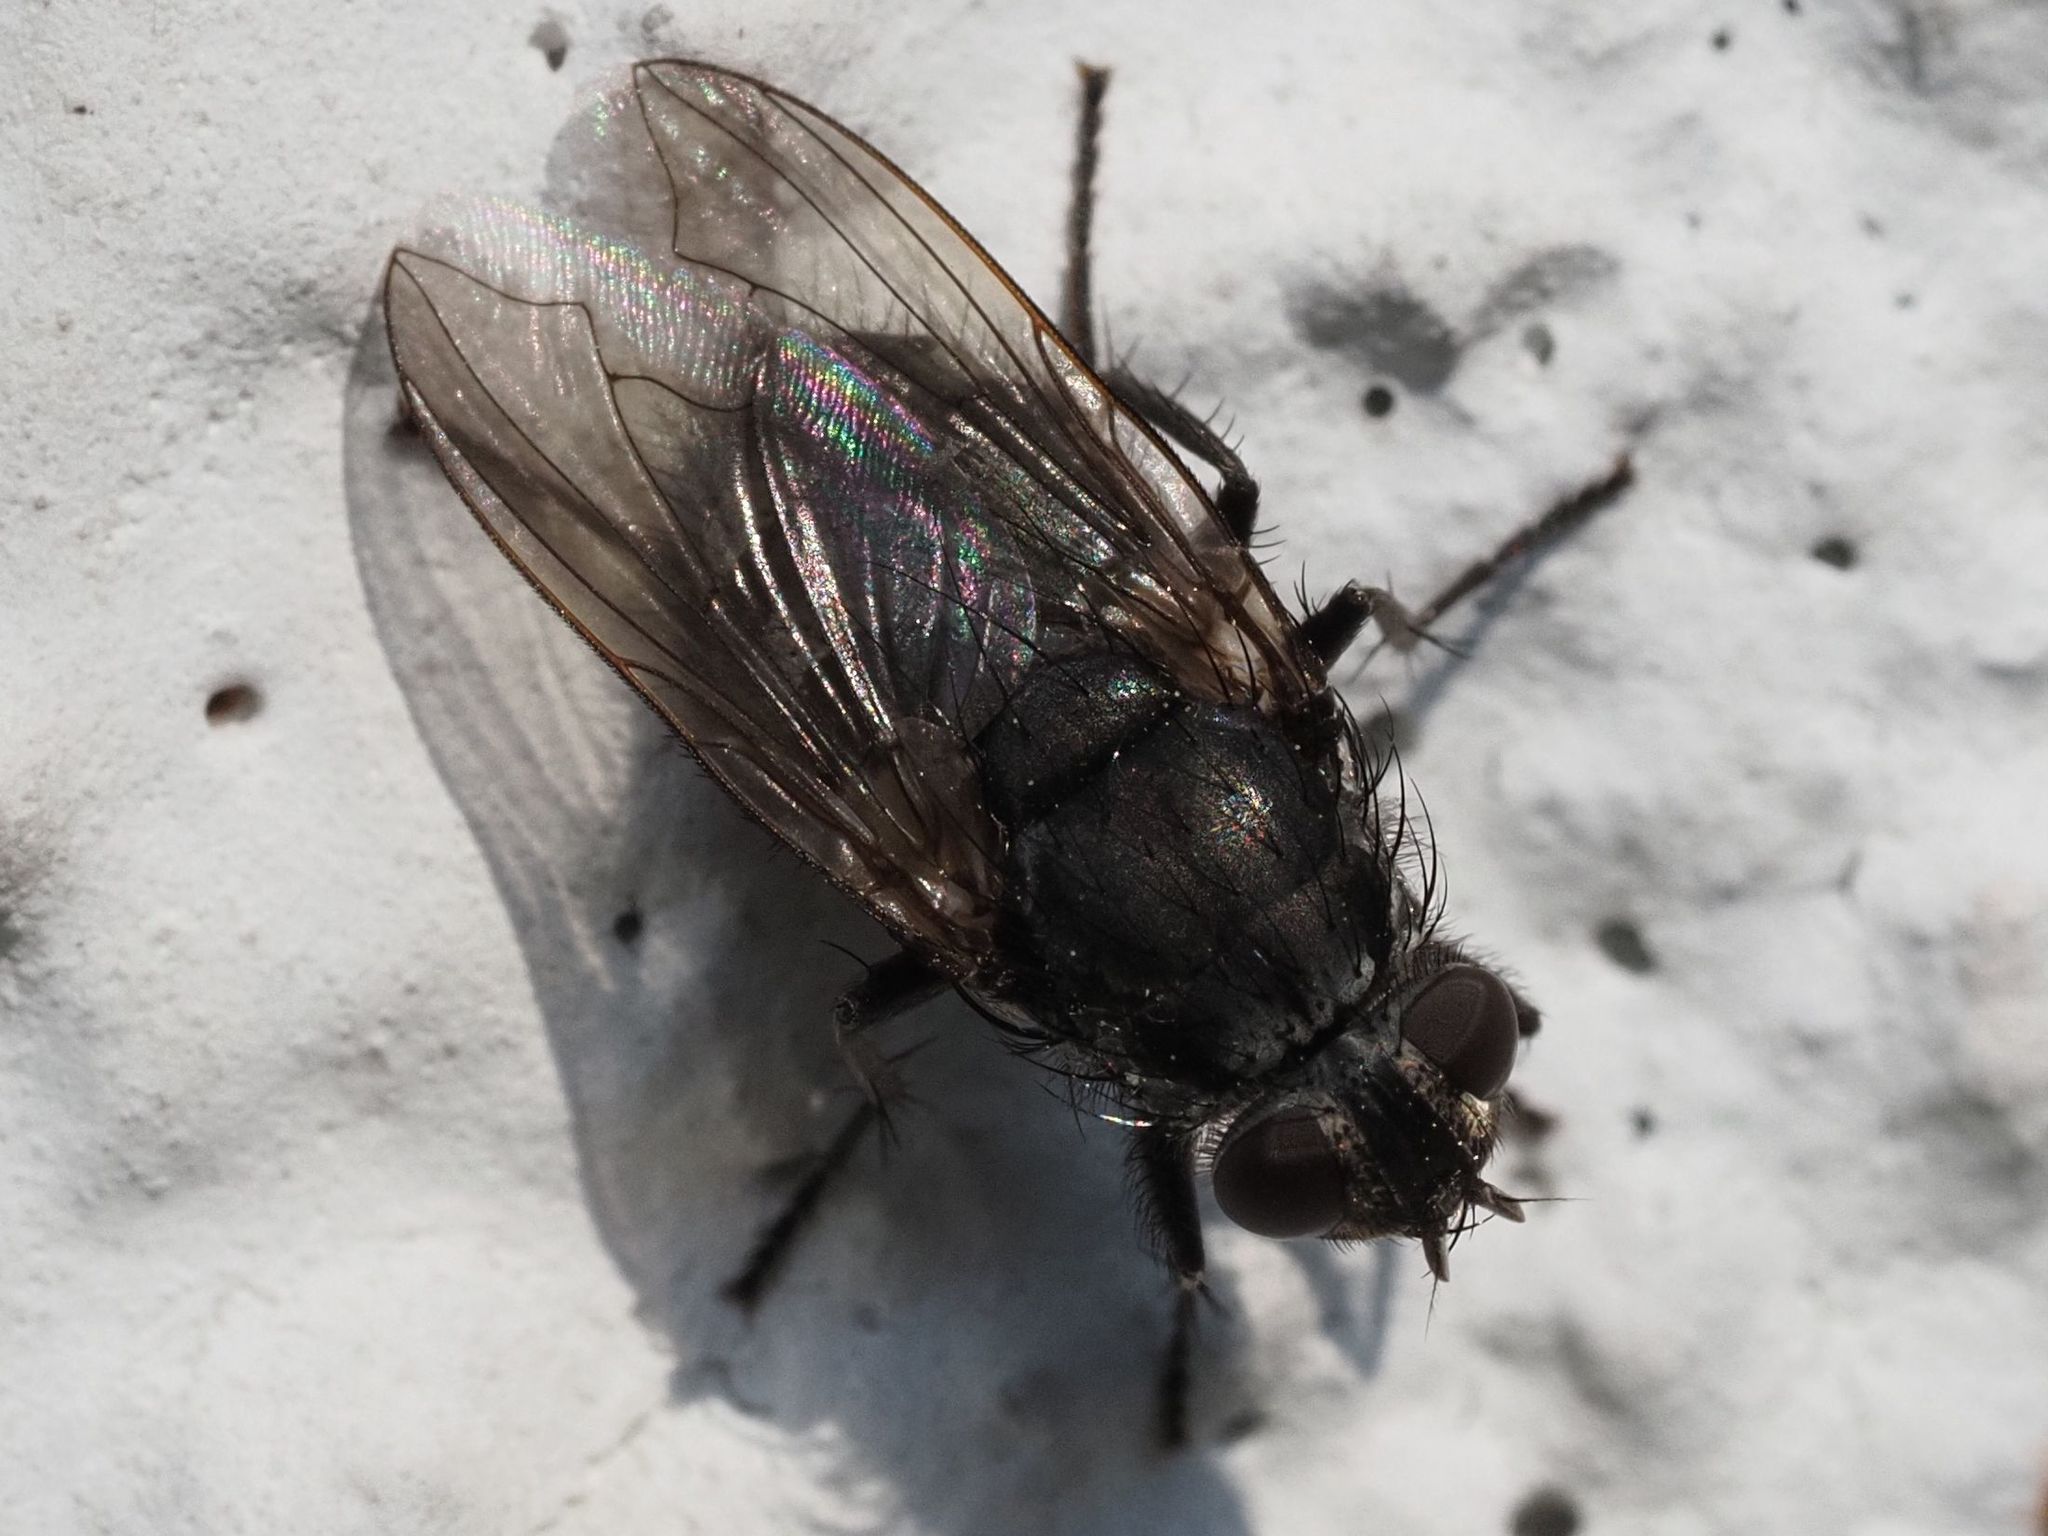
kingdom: Animalia
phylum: Arthropoda
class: Insecta
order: Diptera
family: Polleniidae
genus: Pollenia
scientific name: Pollenia vagabunda
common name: Vagabund cluster fly
